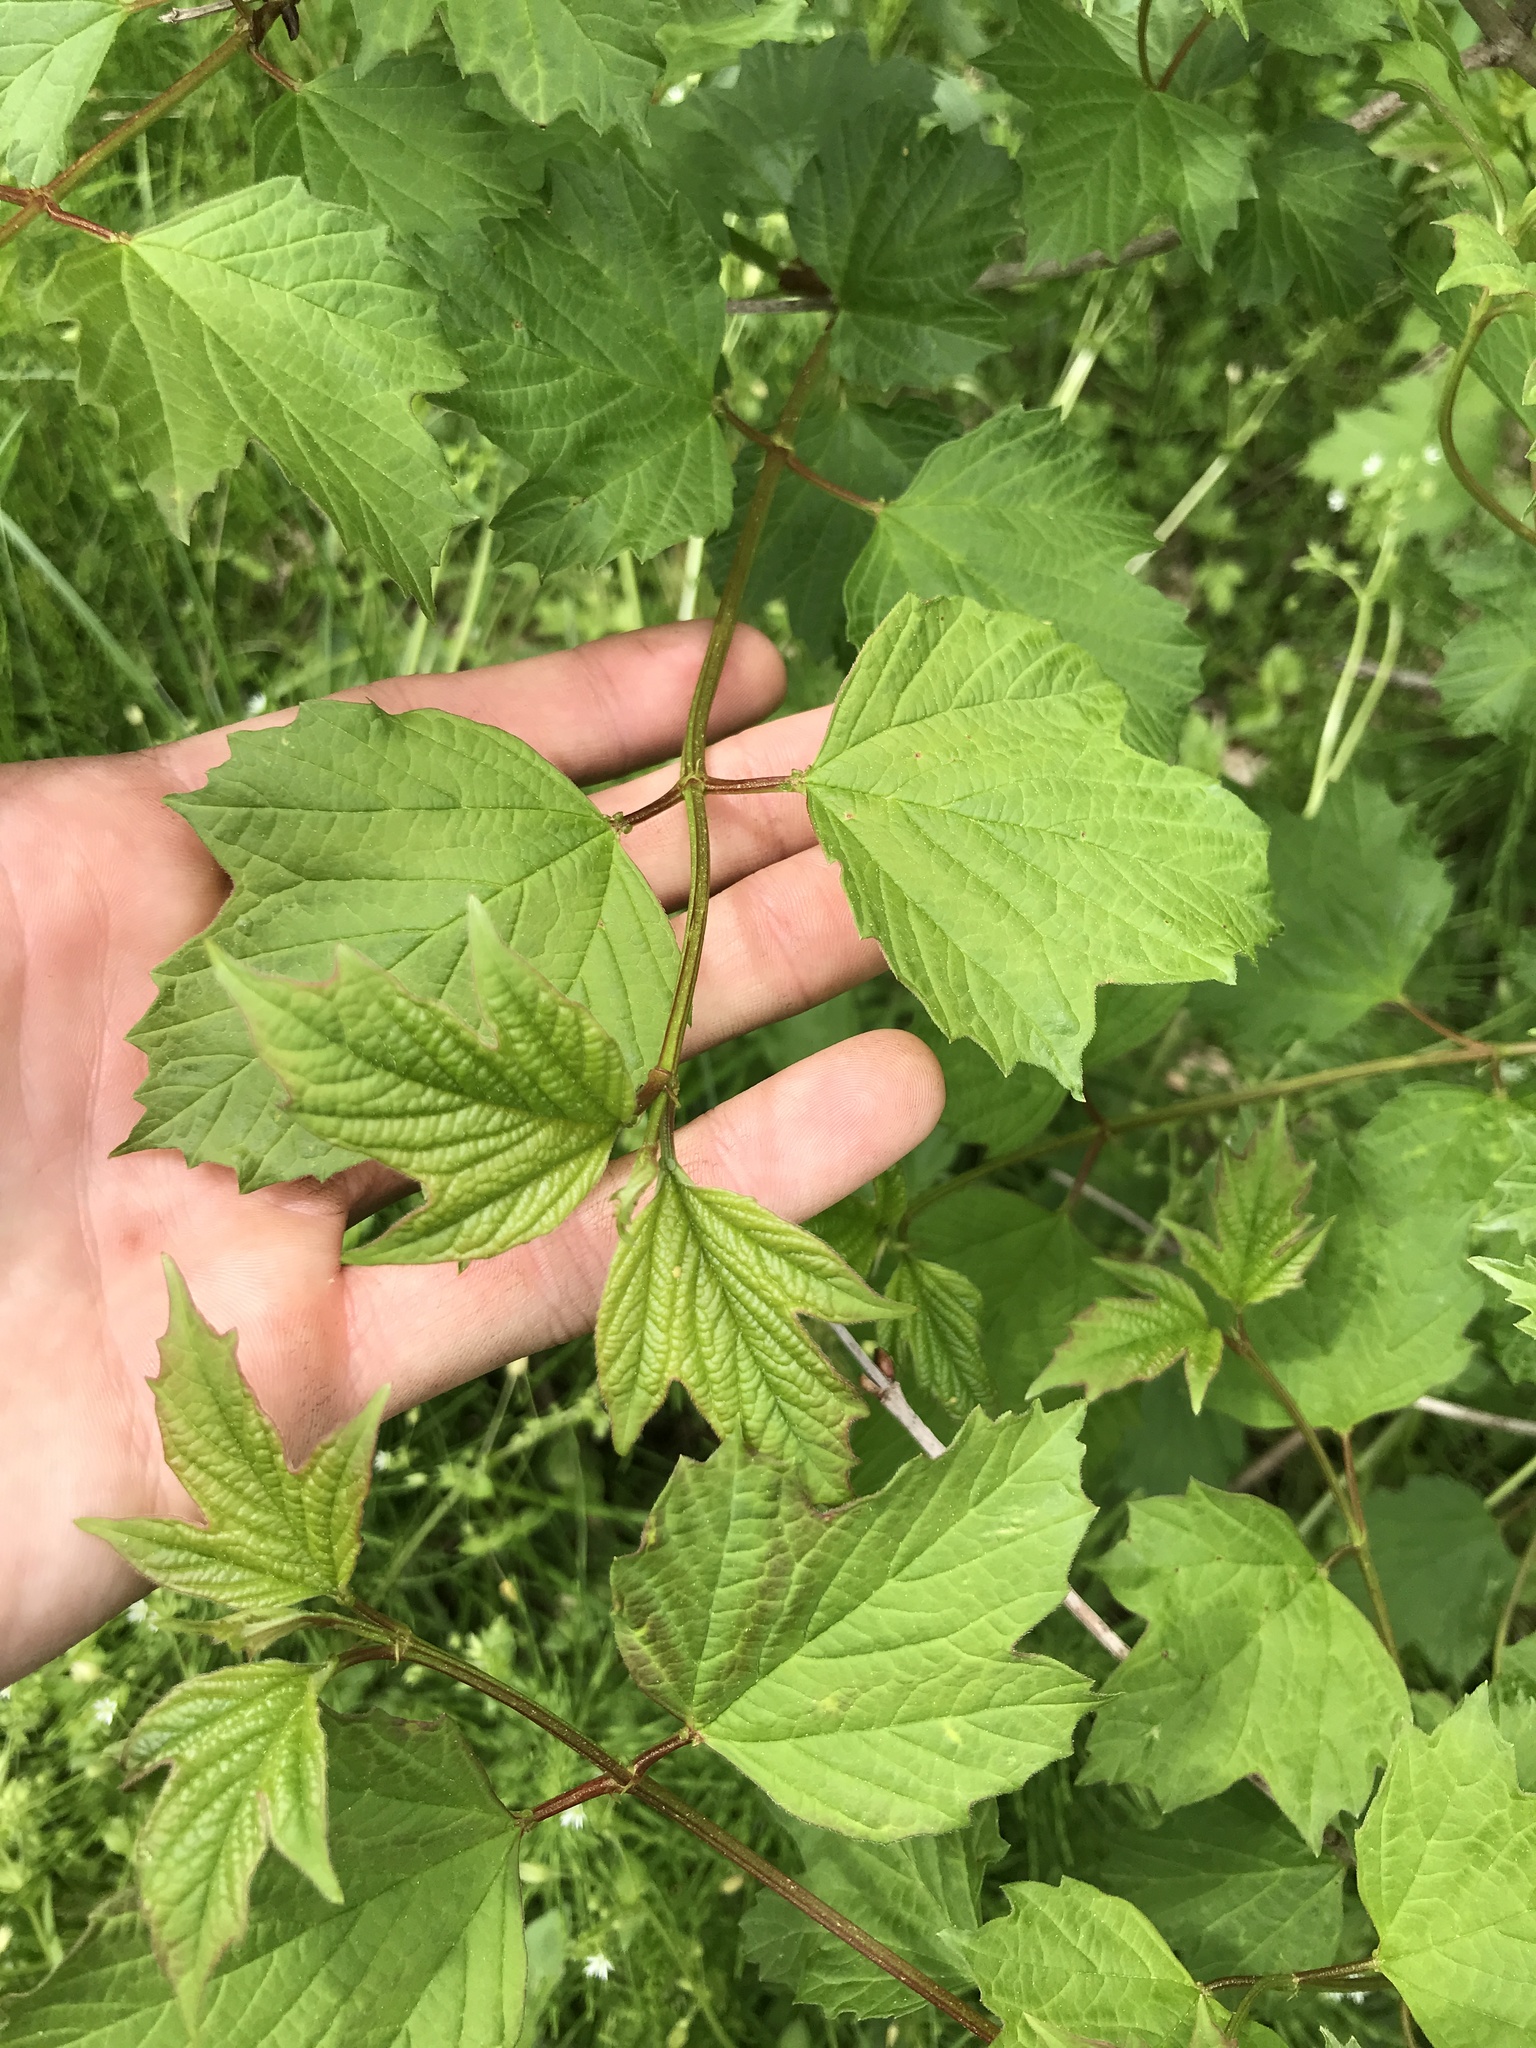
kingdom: Plantae
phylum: Tracheophyta
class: Magnoliopsida
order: Dipsacales
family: Viburnaceae
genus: Viburnum
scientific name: Viburnum opulus
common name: Guelder-rose
